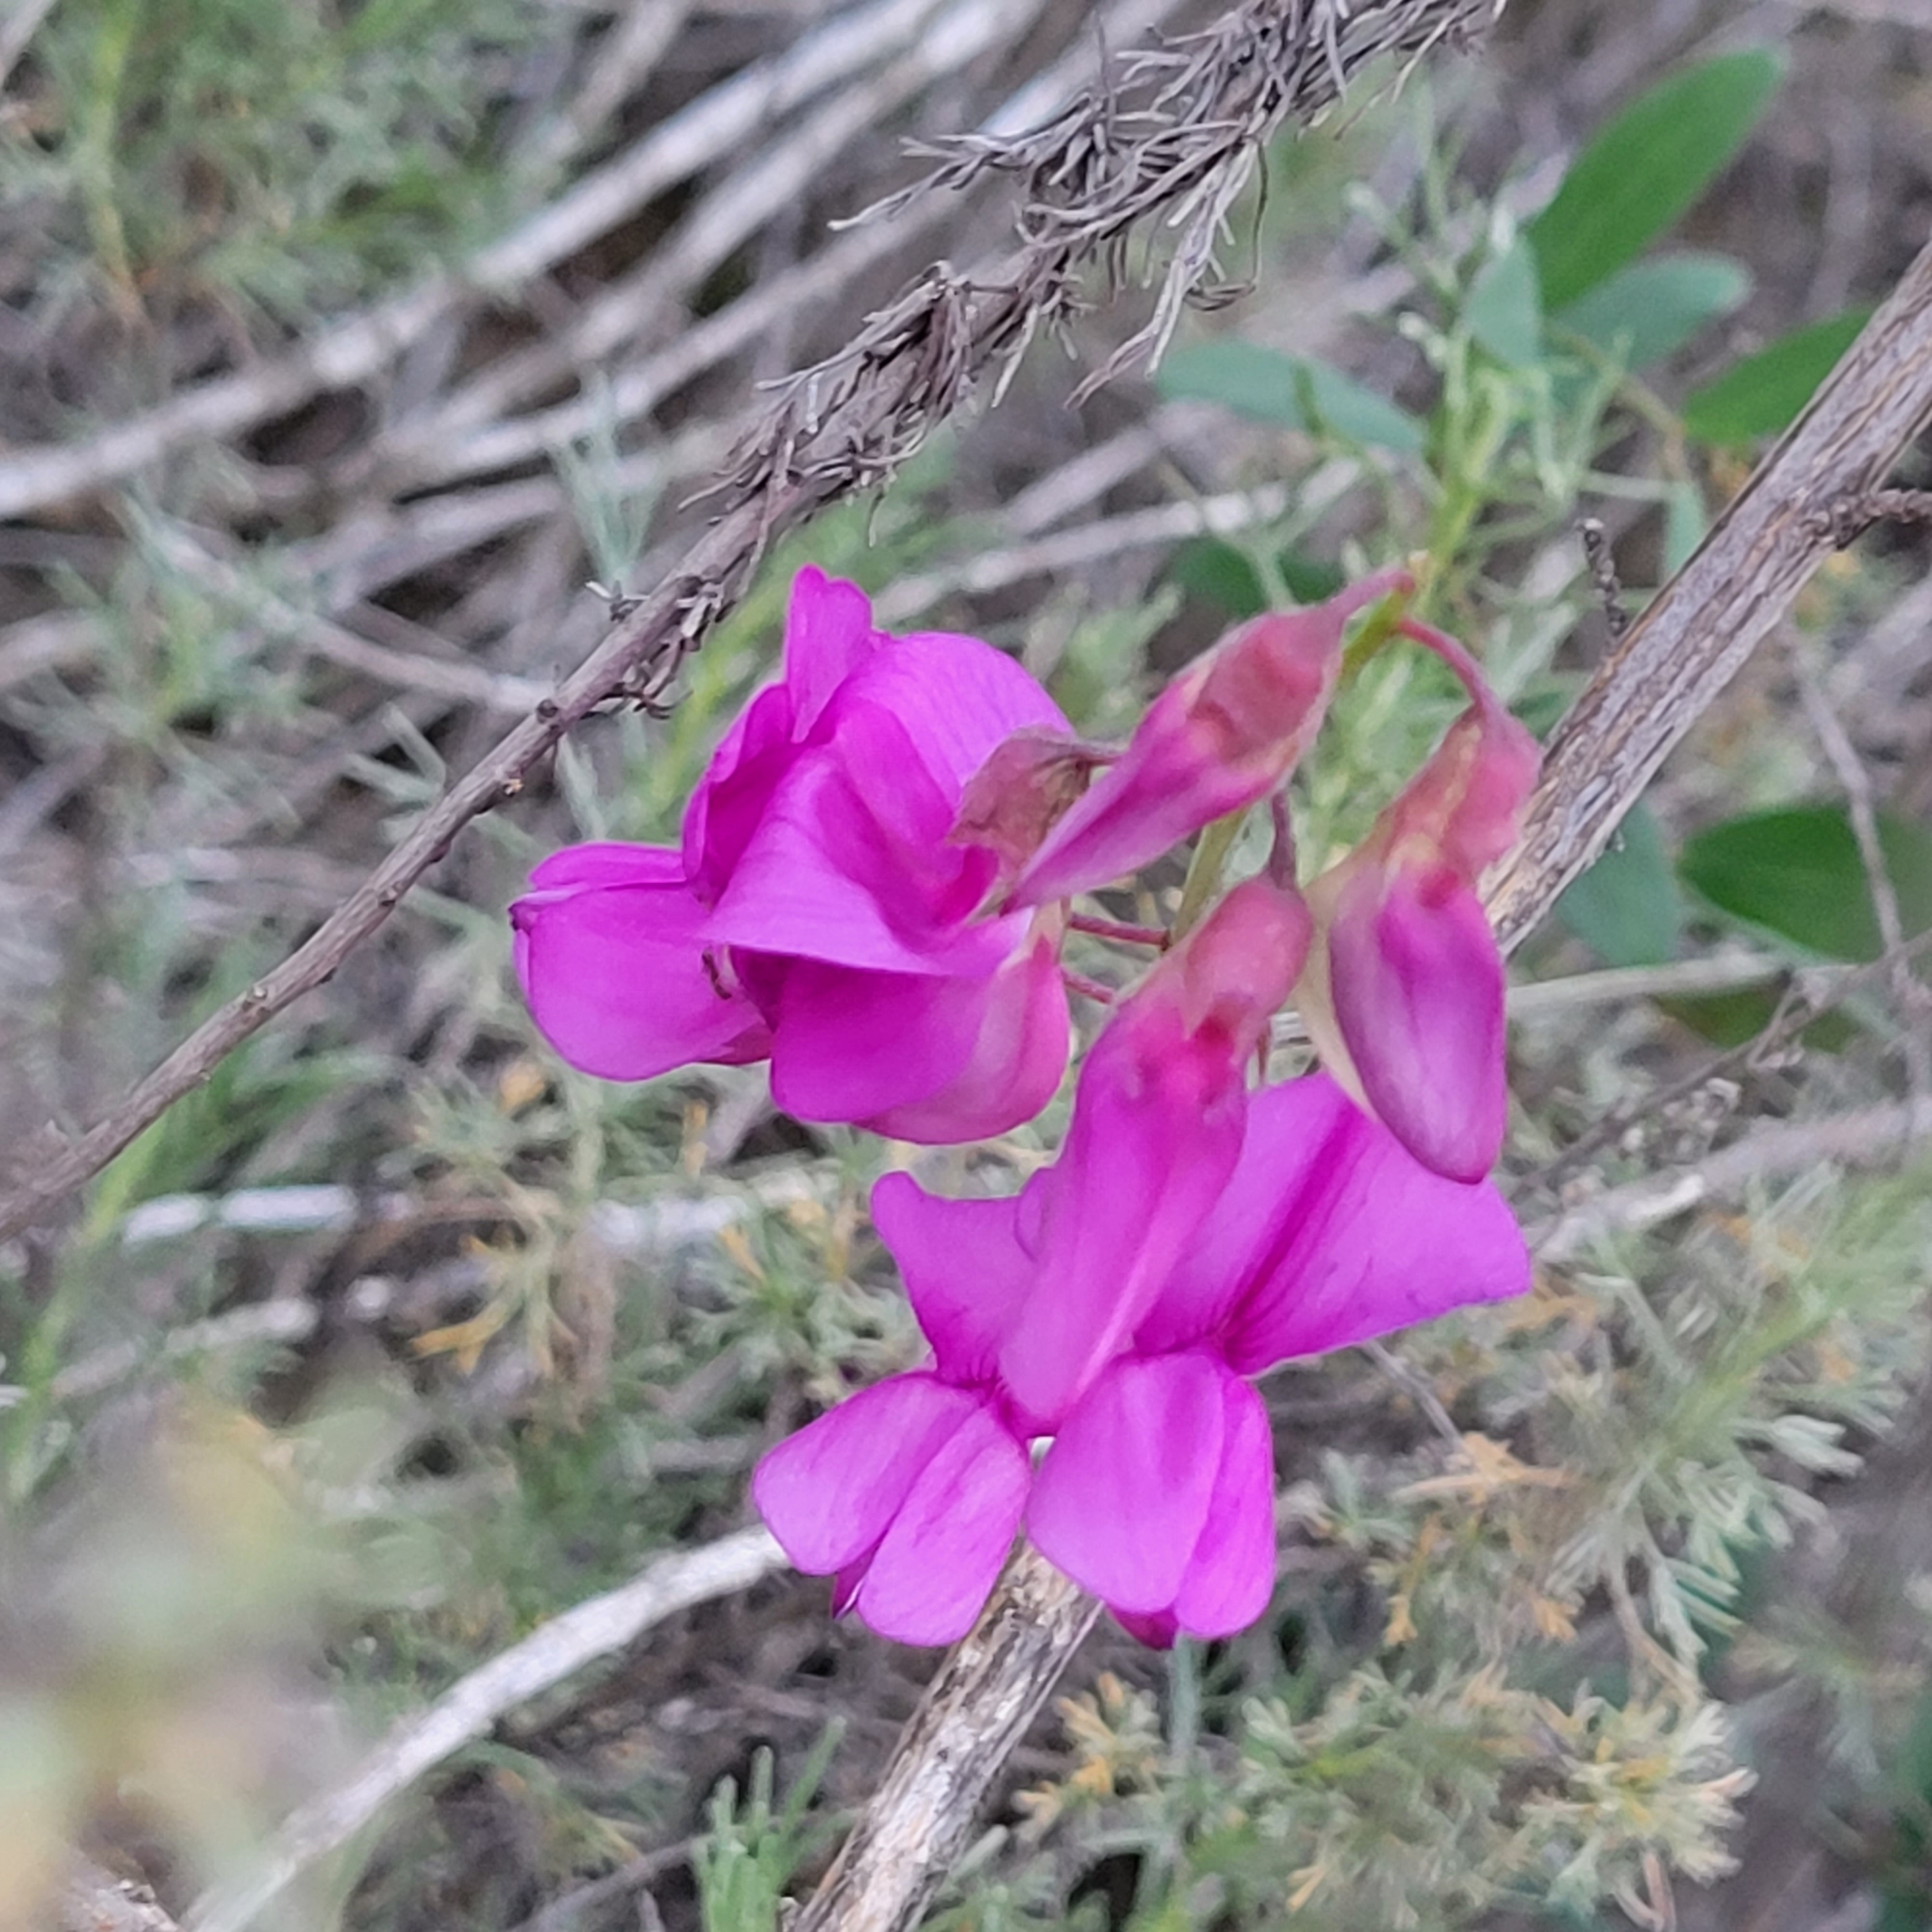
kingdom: Plantae
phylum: Tracheophyta
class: Magnoliopsida
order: Fabales
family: Fabaceae
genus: Lathyrus
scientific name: Lathyrus vestitus
